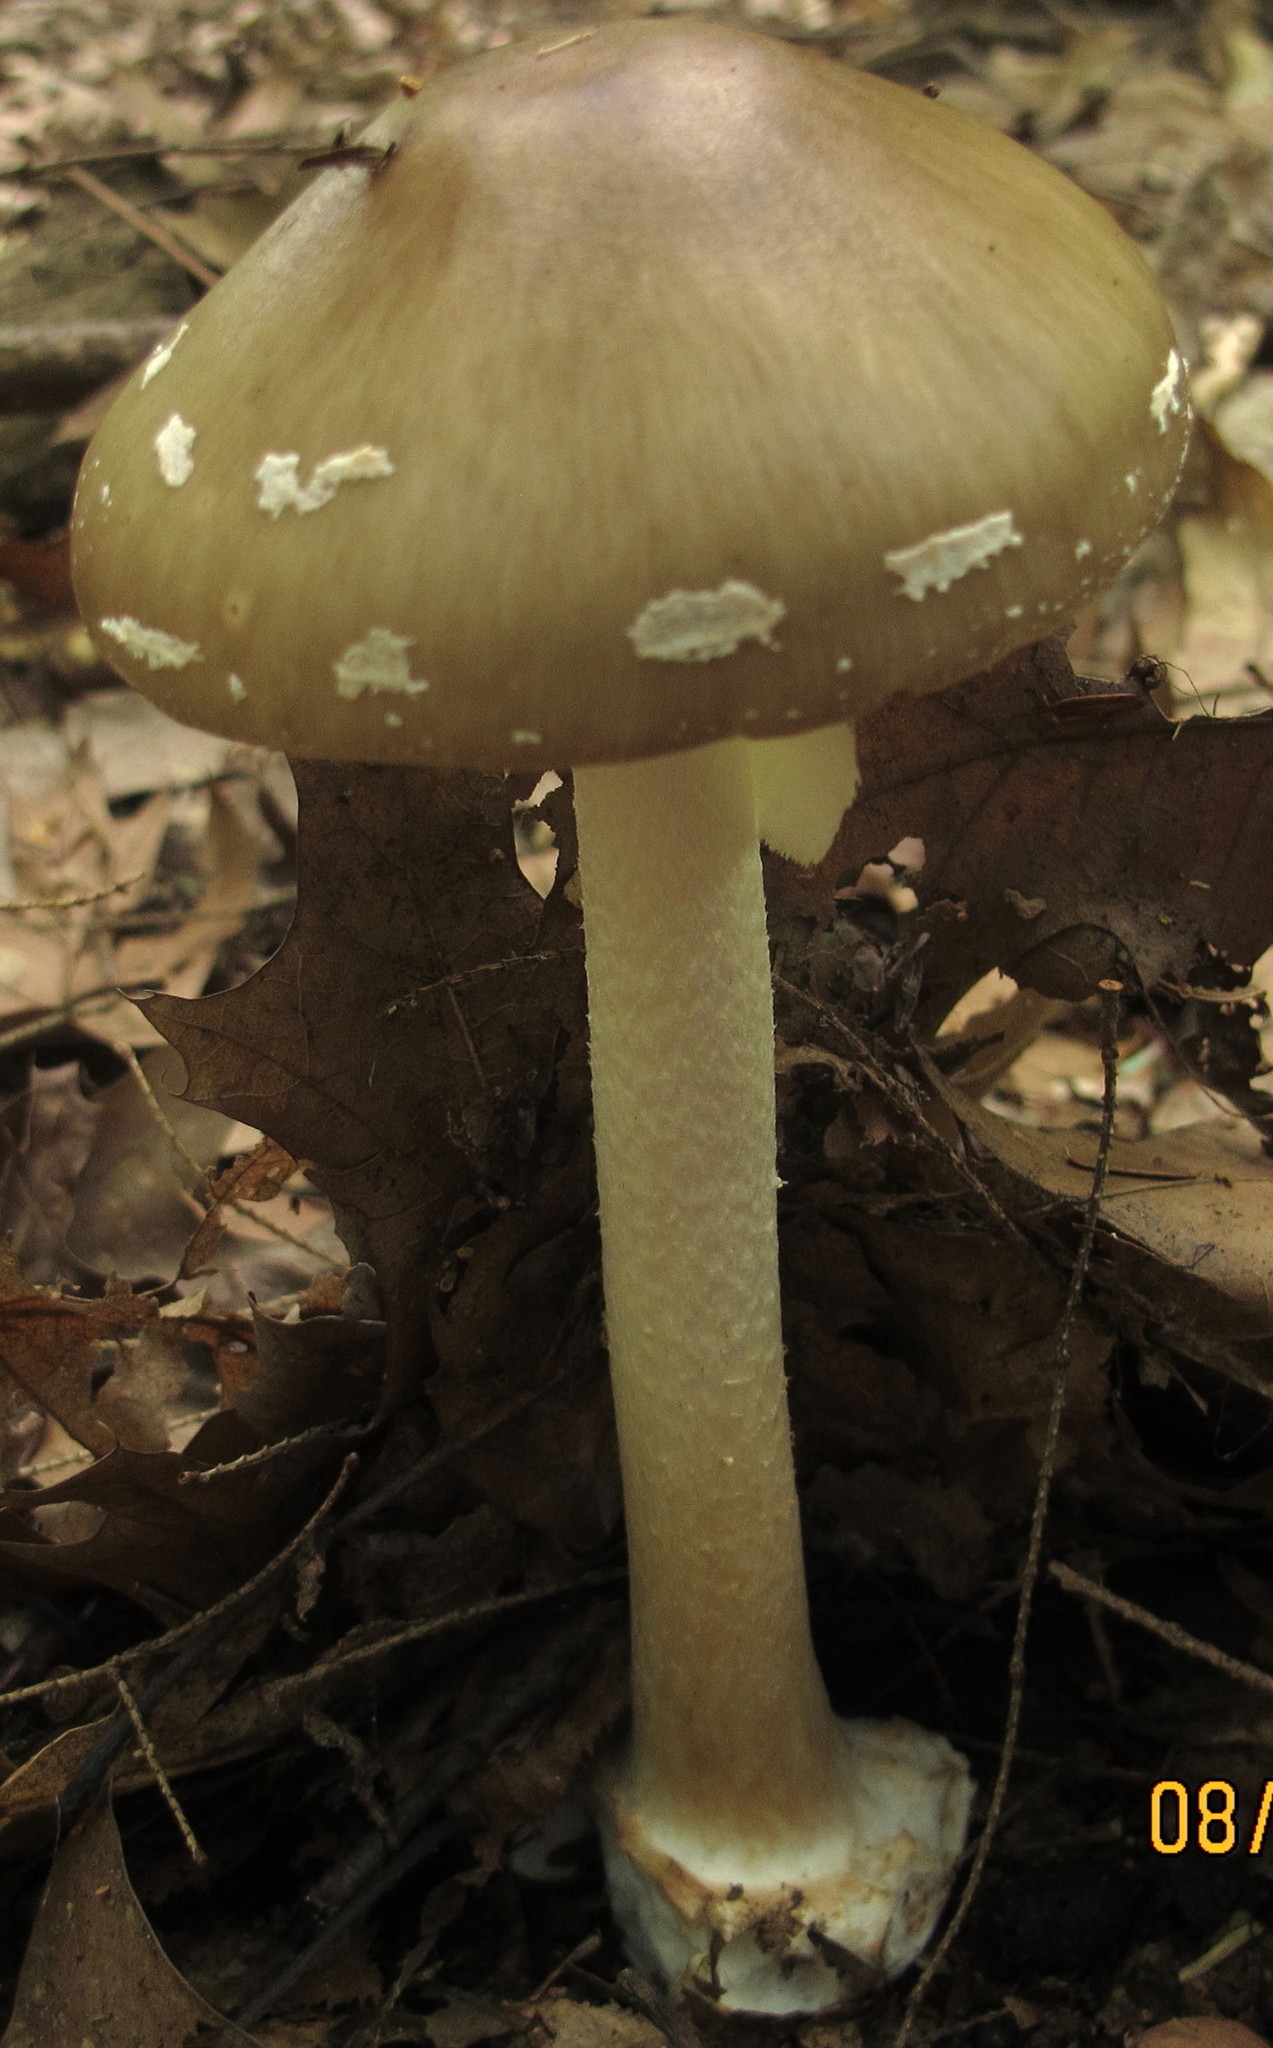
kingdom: Fungi
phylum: Basidiomycota
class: Agaricomycetes
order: Agaricales
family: Amanitaceae
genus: Amanita
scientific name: Amanita brunnescens
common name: Brown american star-footed amanita
